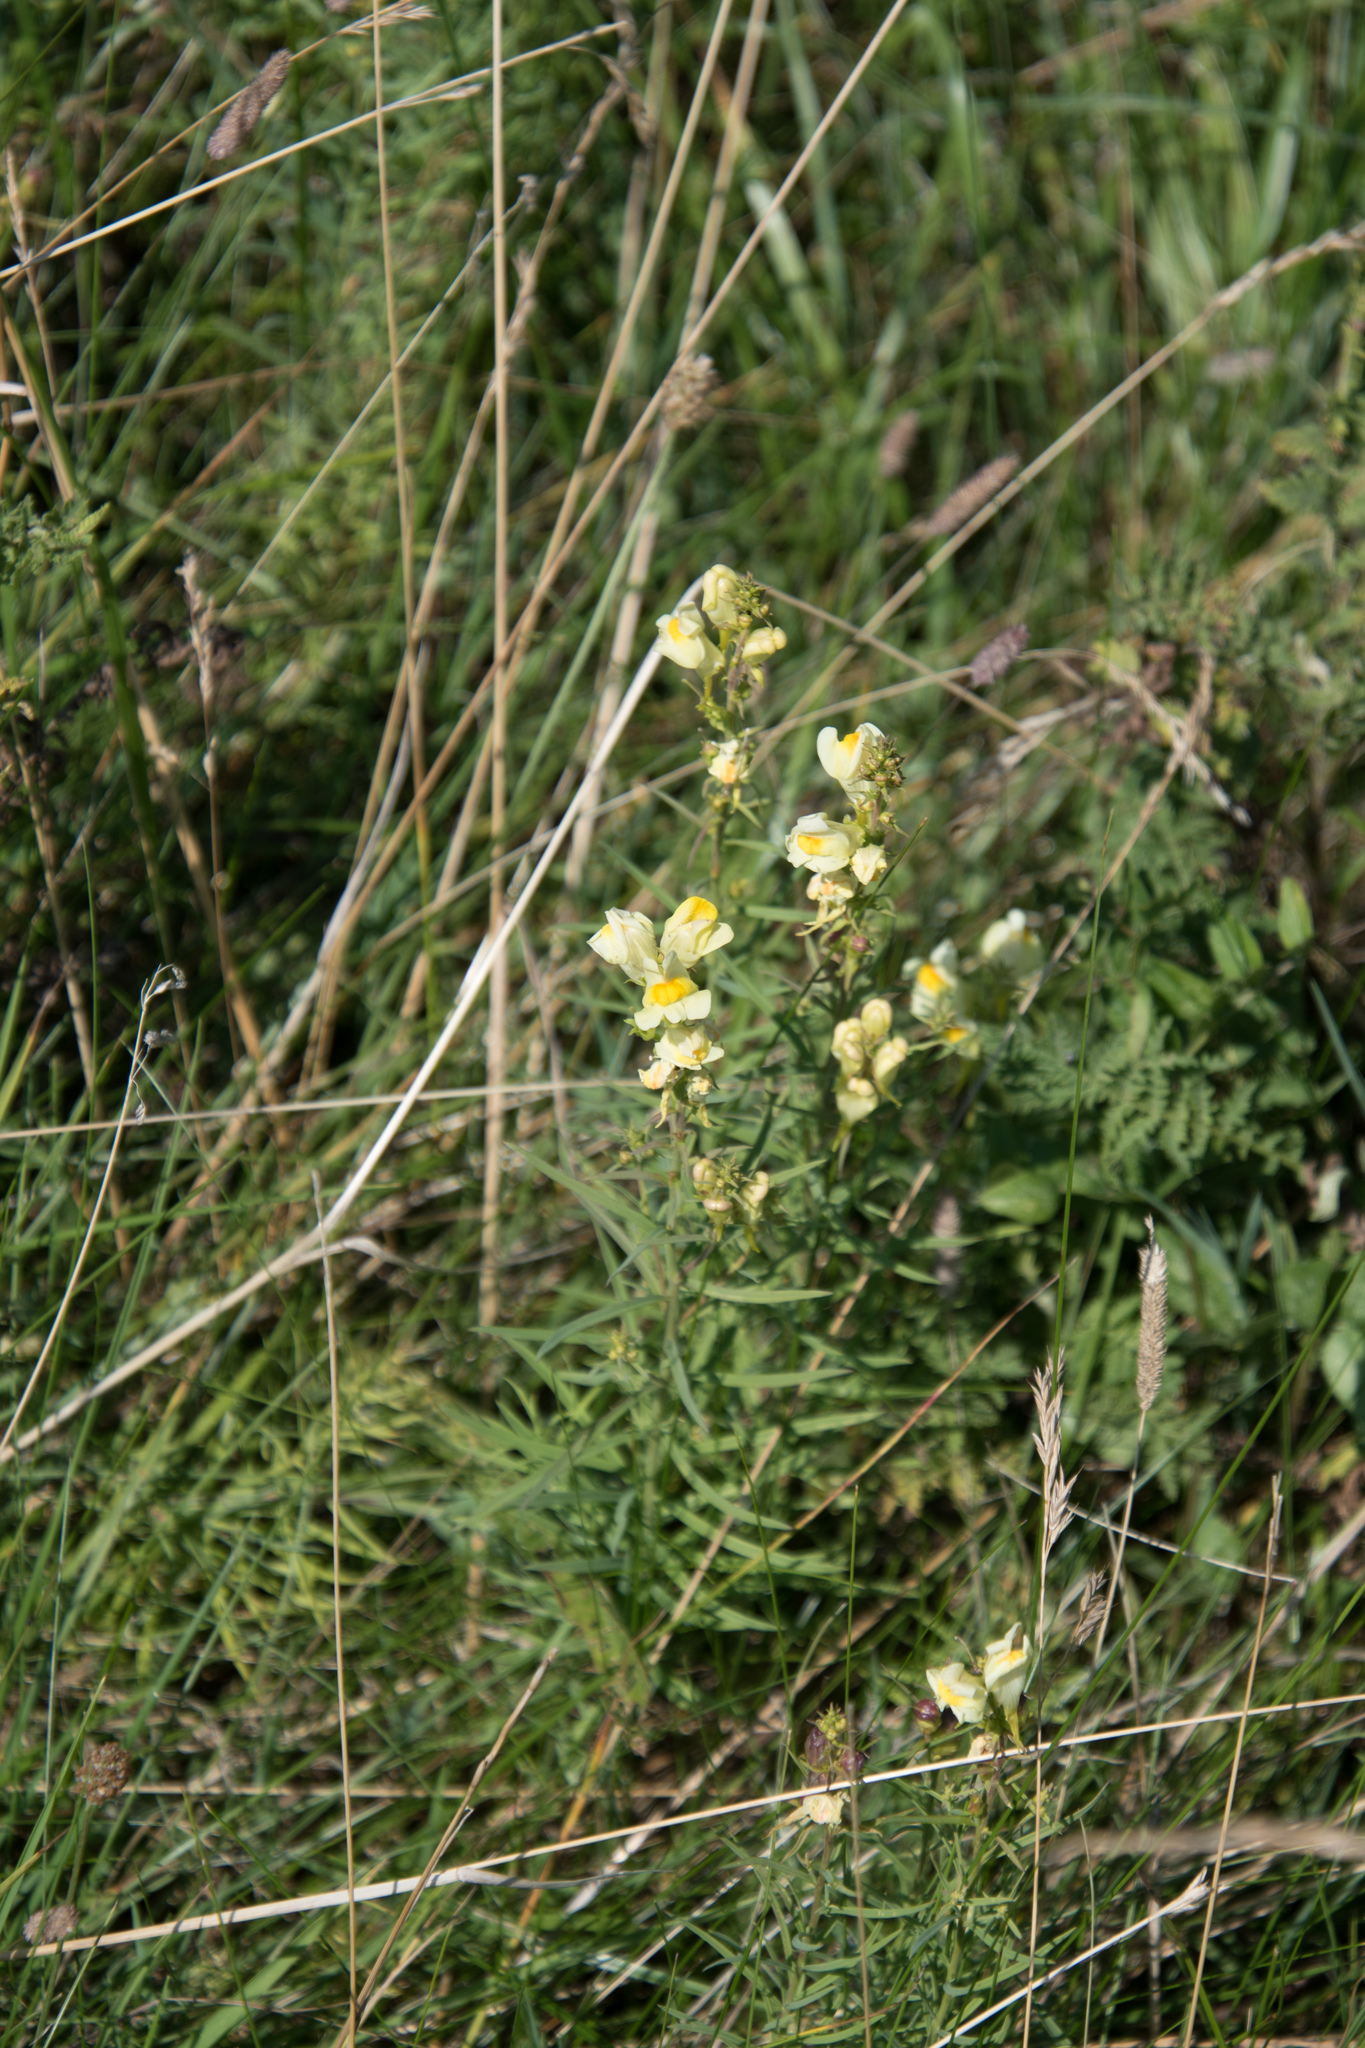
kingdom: Plantae
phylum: Tracheophyta
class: Magnoliopsida
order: Lamiales
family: Plantaginaceae
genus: Linaria
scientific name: Linaria vulgaris
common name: Butter and eggs
